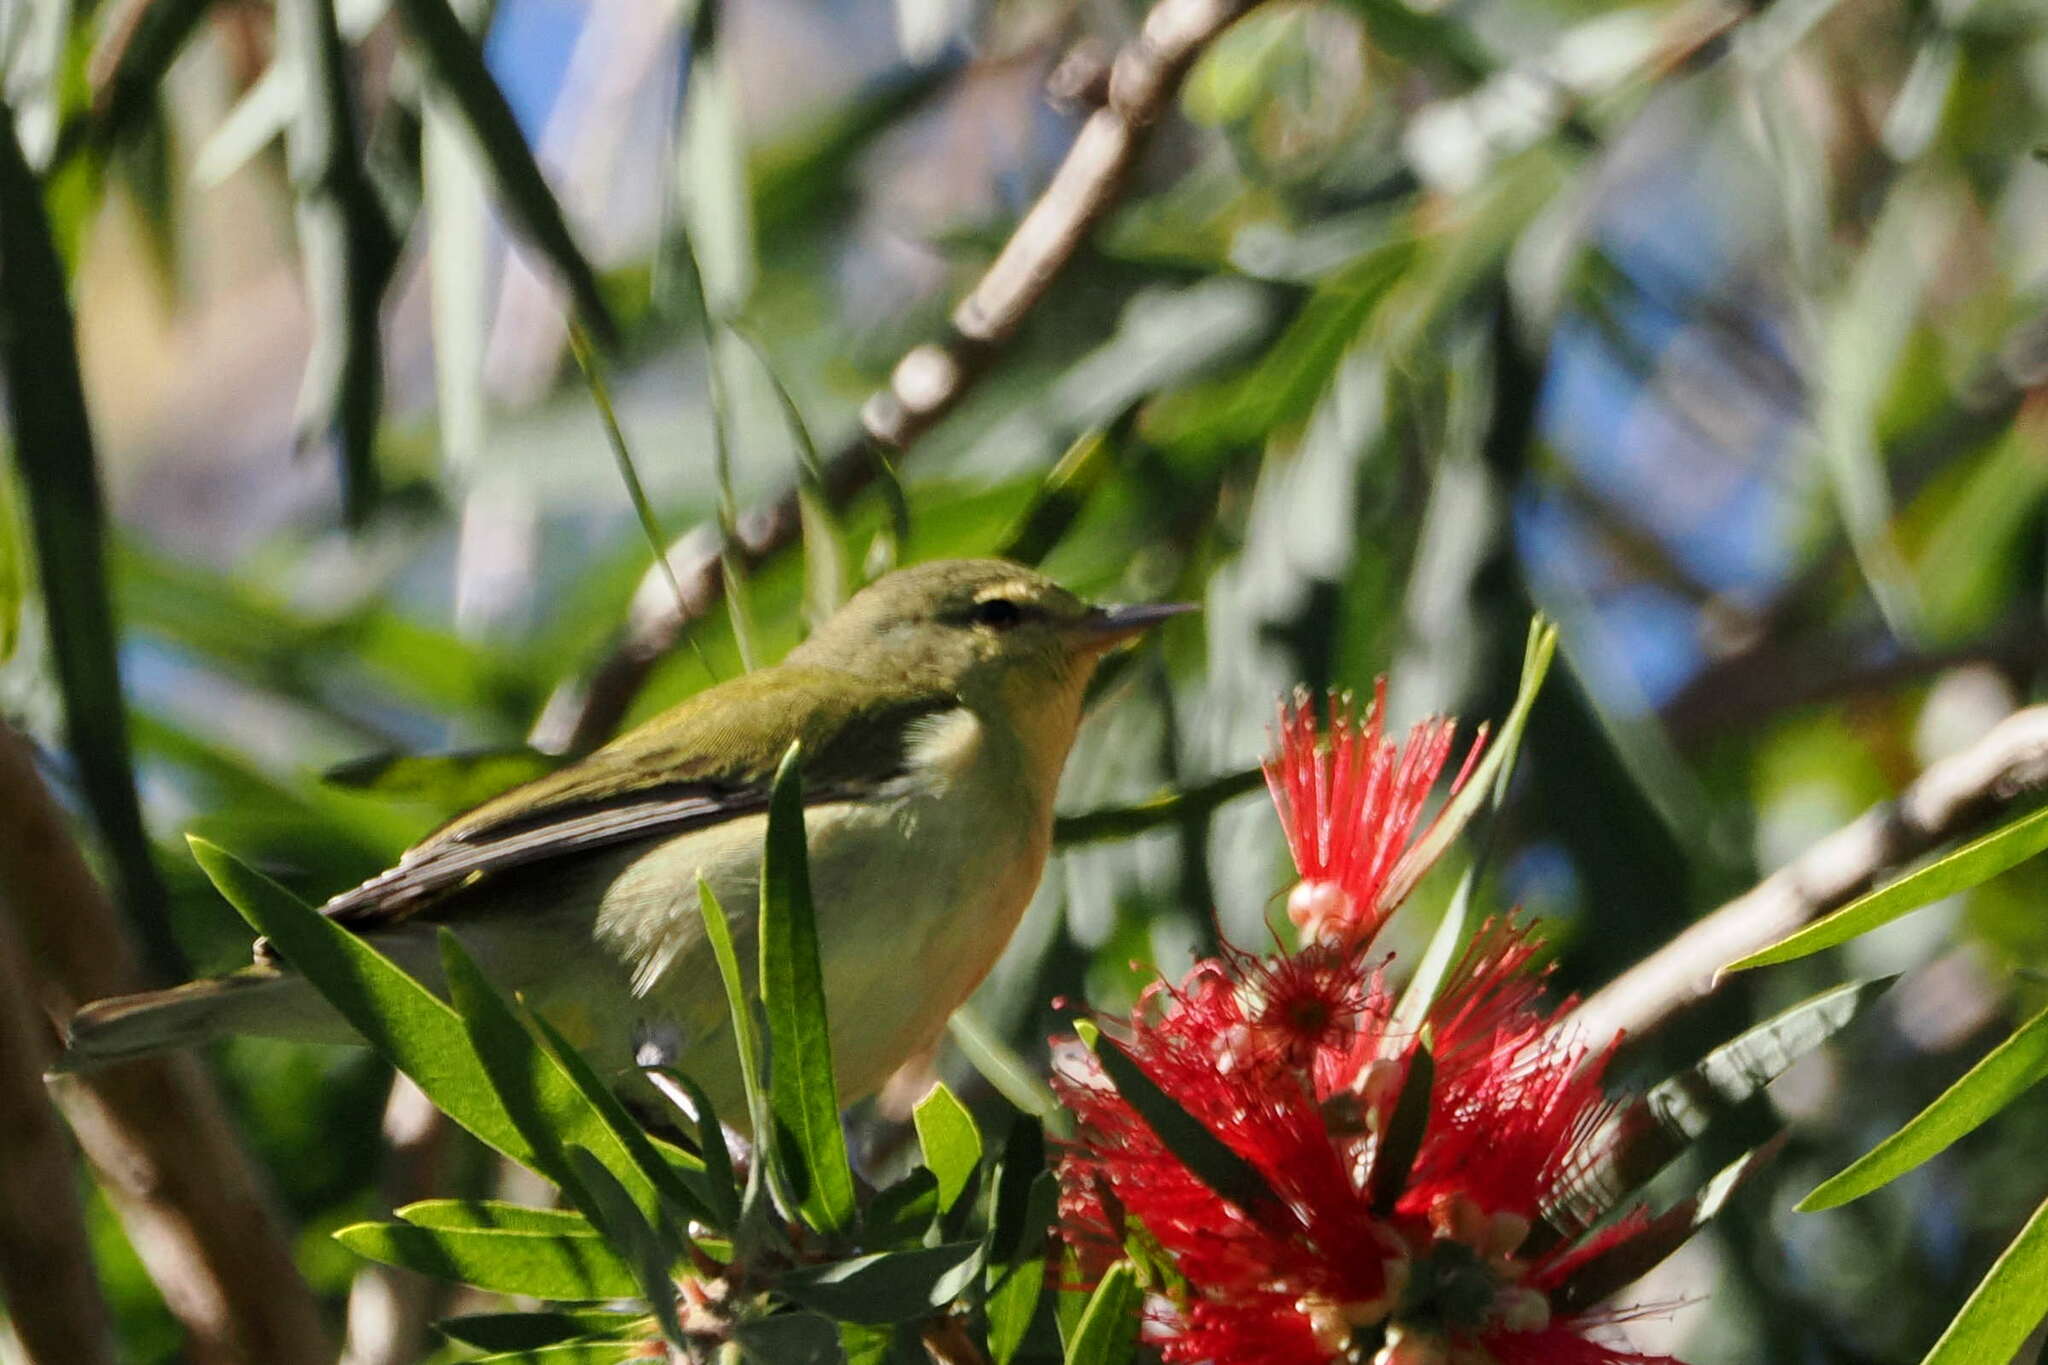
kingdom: Animalia
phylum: Chordata
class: Aves
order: Passeriformes
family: Parulidae
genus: Leiothlypis
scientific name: Leiothlypis peregrina
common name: Tennessee warbler
